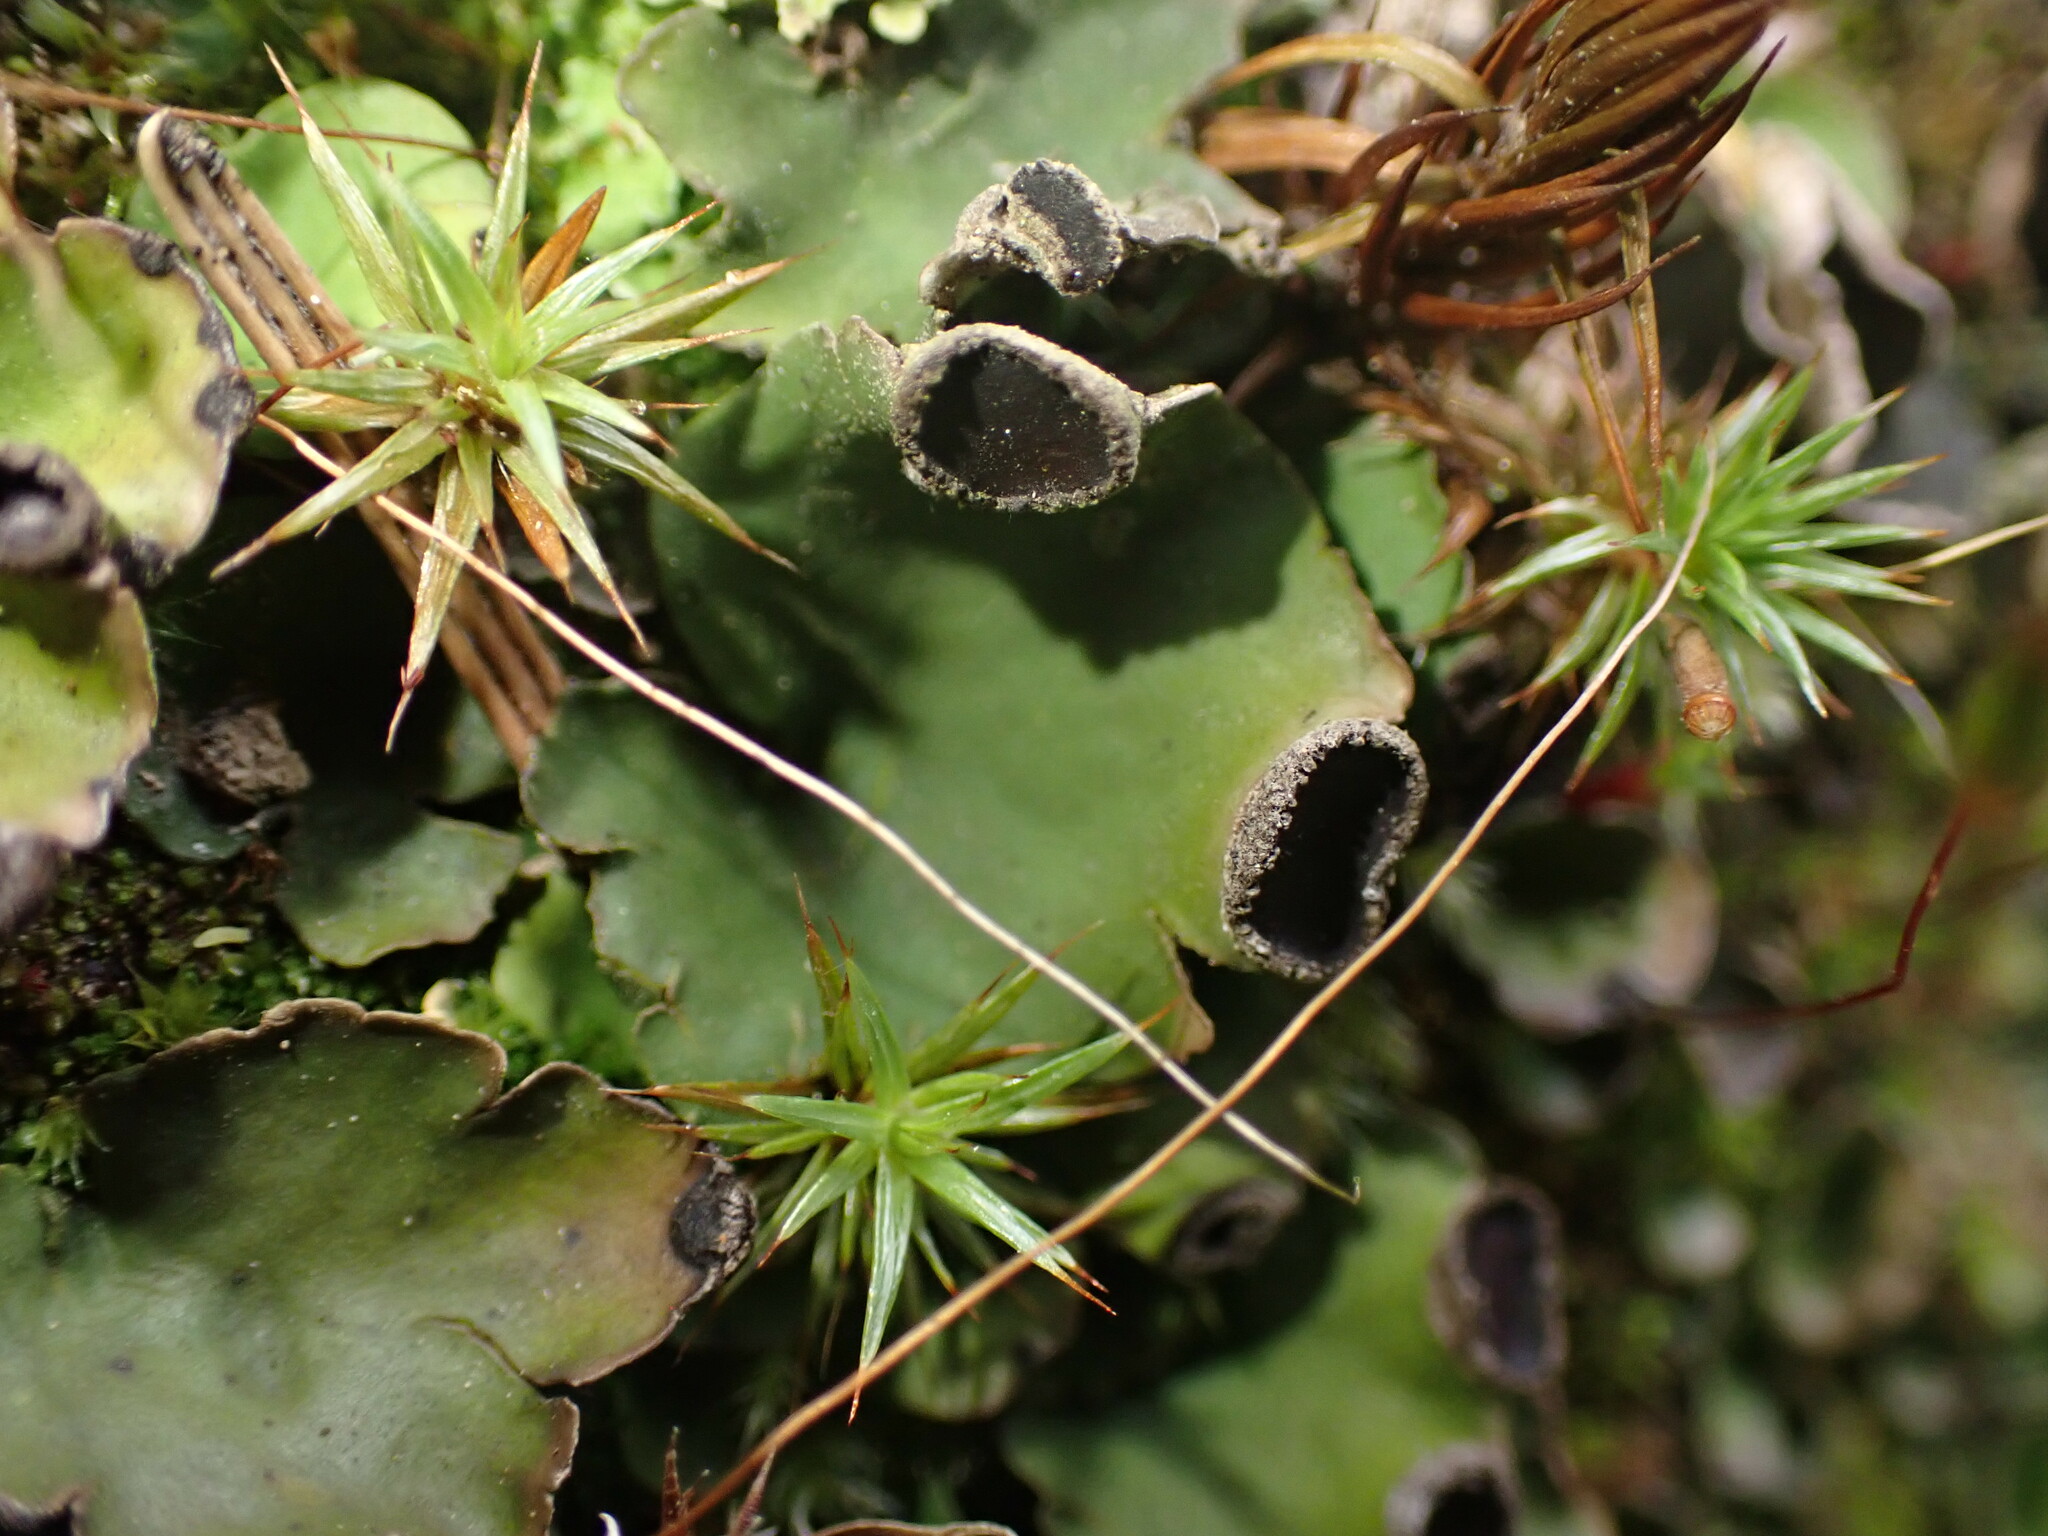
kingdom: Fungi
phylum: Ascomycota
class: Lecanoromycetes
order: Peltigerales
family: Peltigeraceae
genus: Peltigera
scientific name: Peltigera venosa
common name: Pixie gowns lichen
